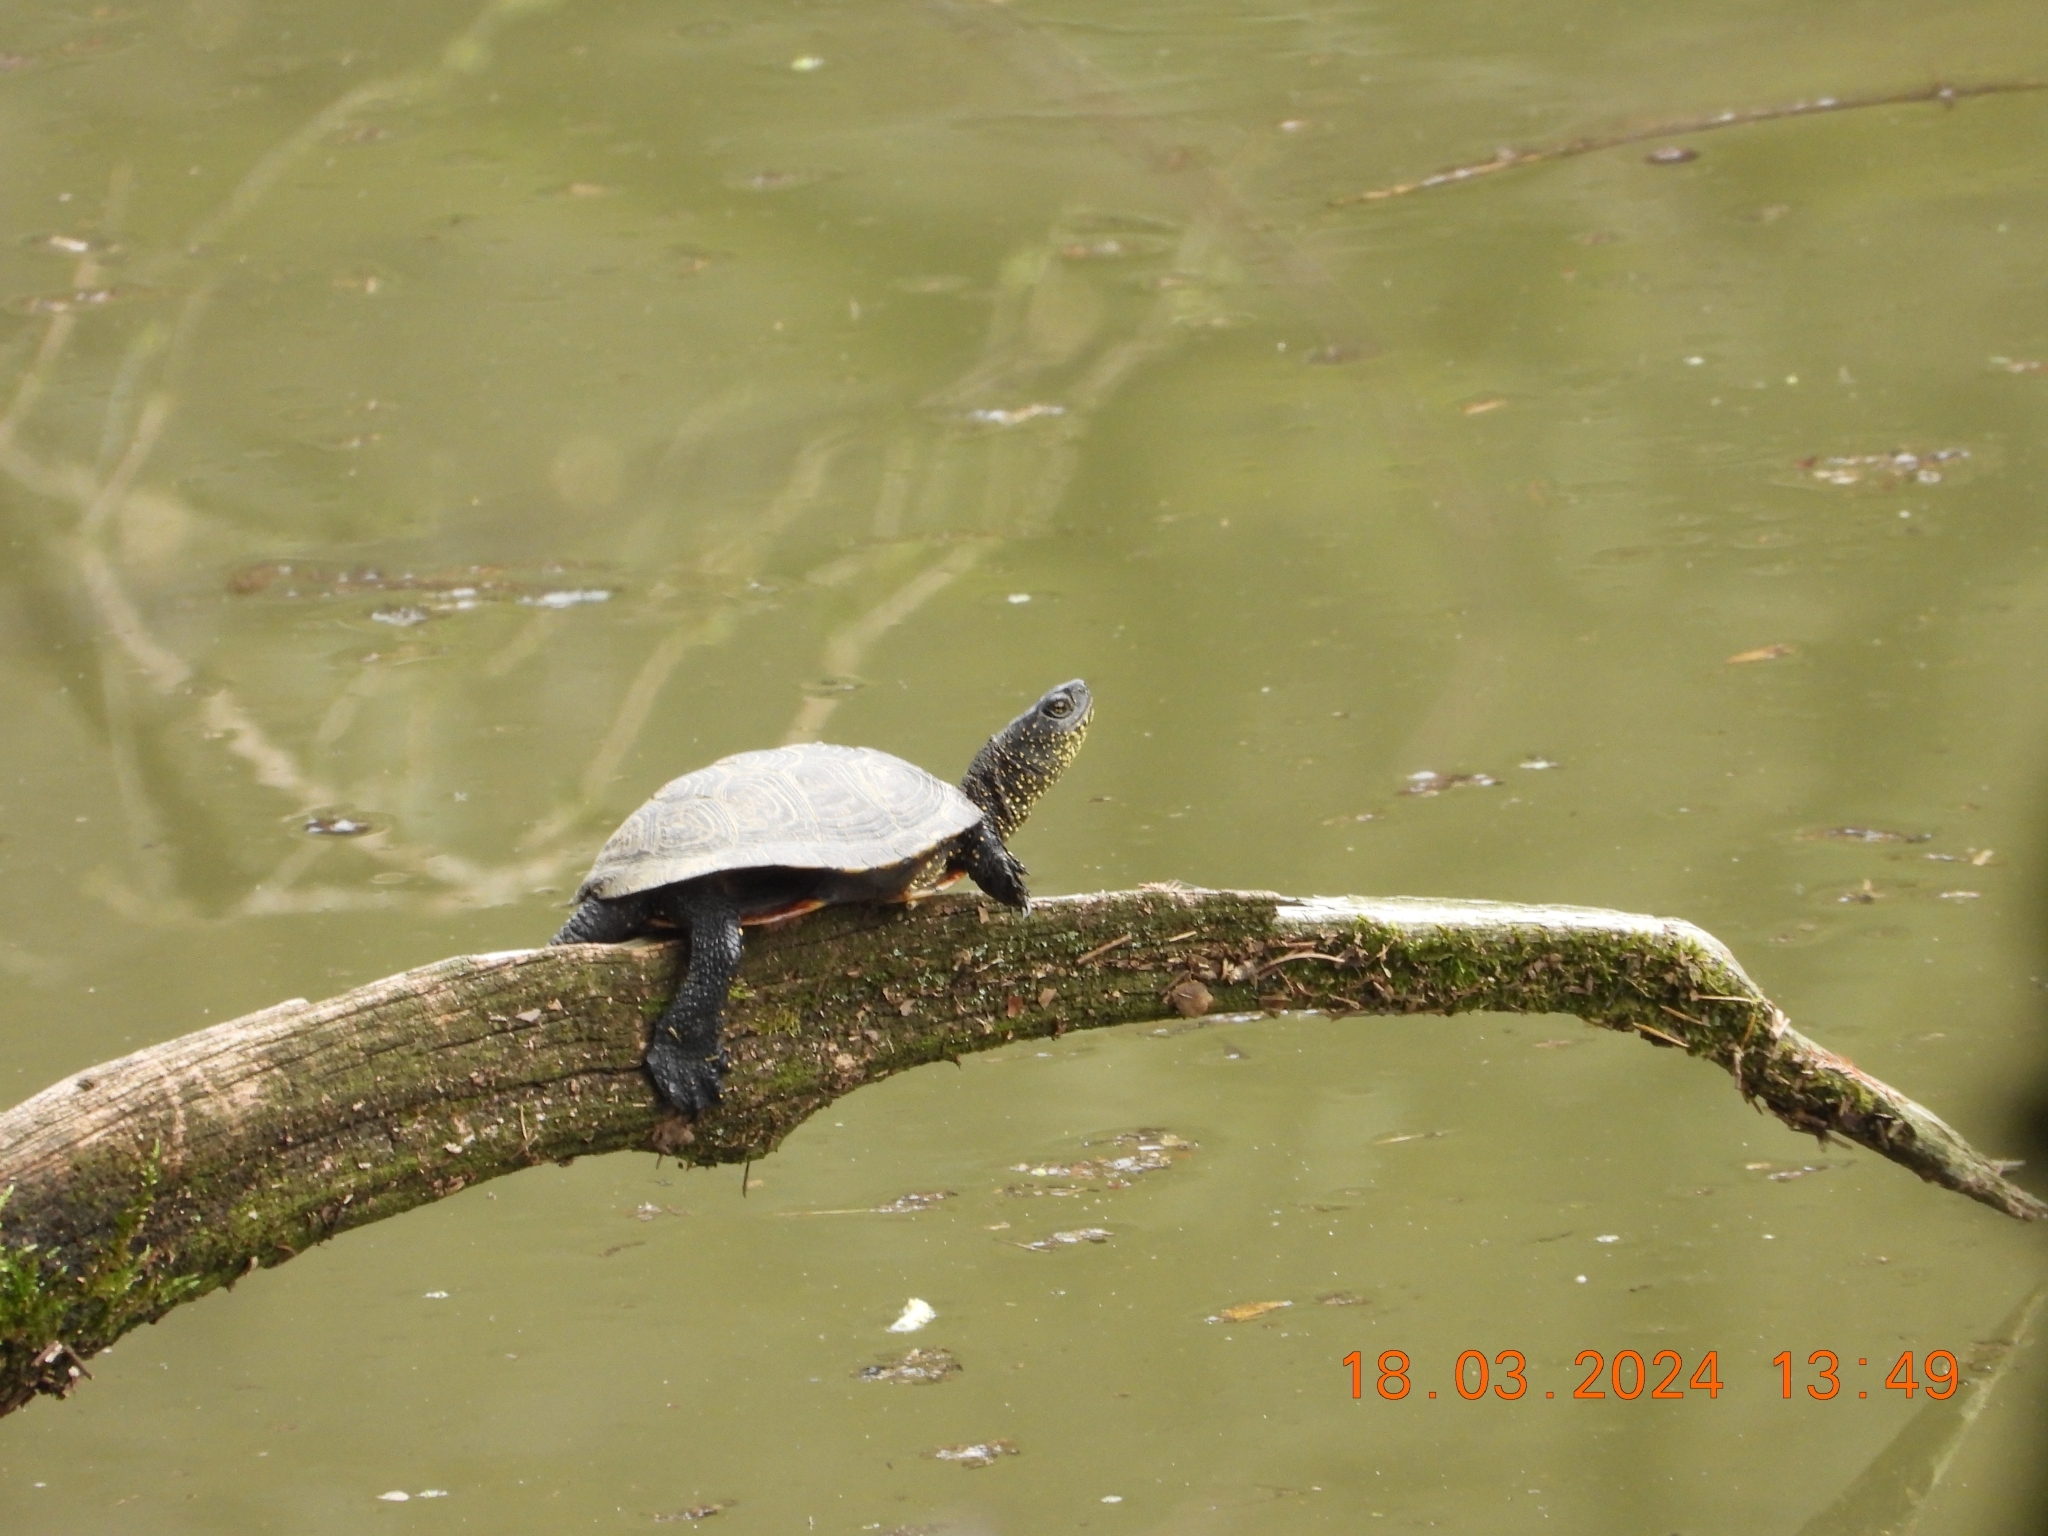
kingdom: Animalia
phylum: Chordata
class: Testudines
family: Emydidae
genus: Emys
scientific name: Emys orbicularis
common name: European pond turtle
